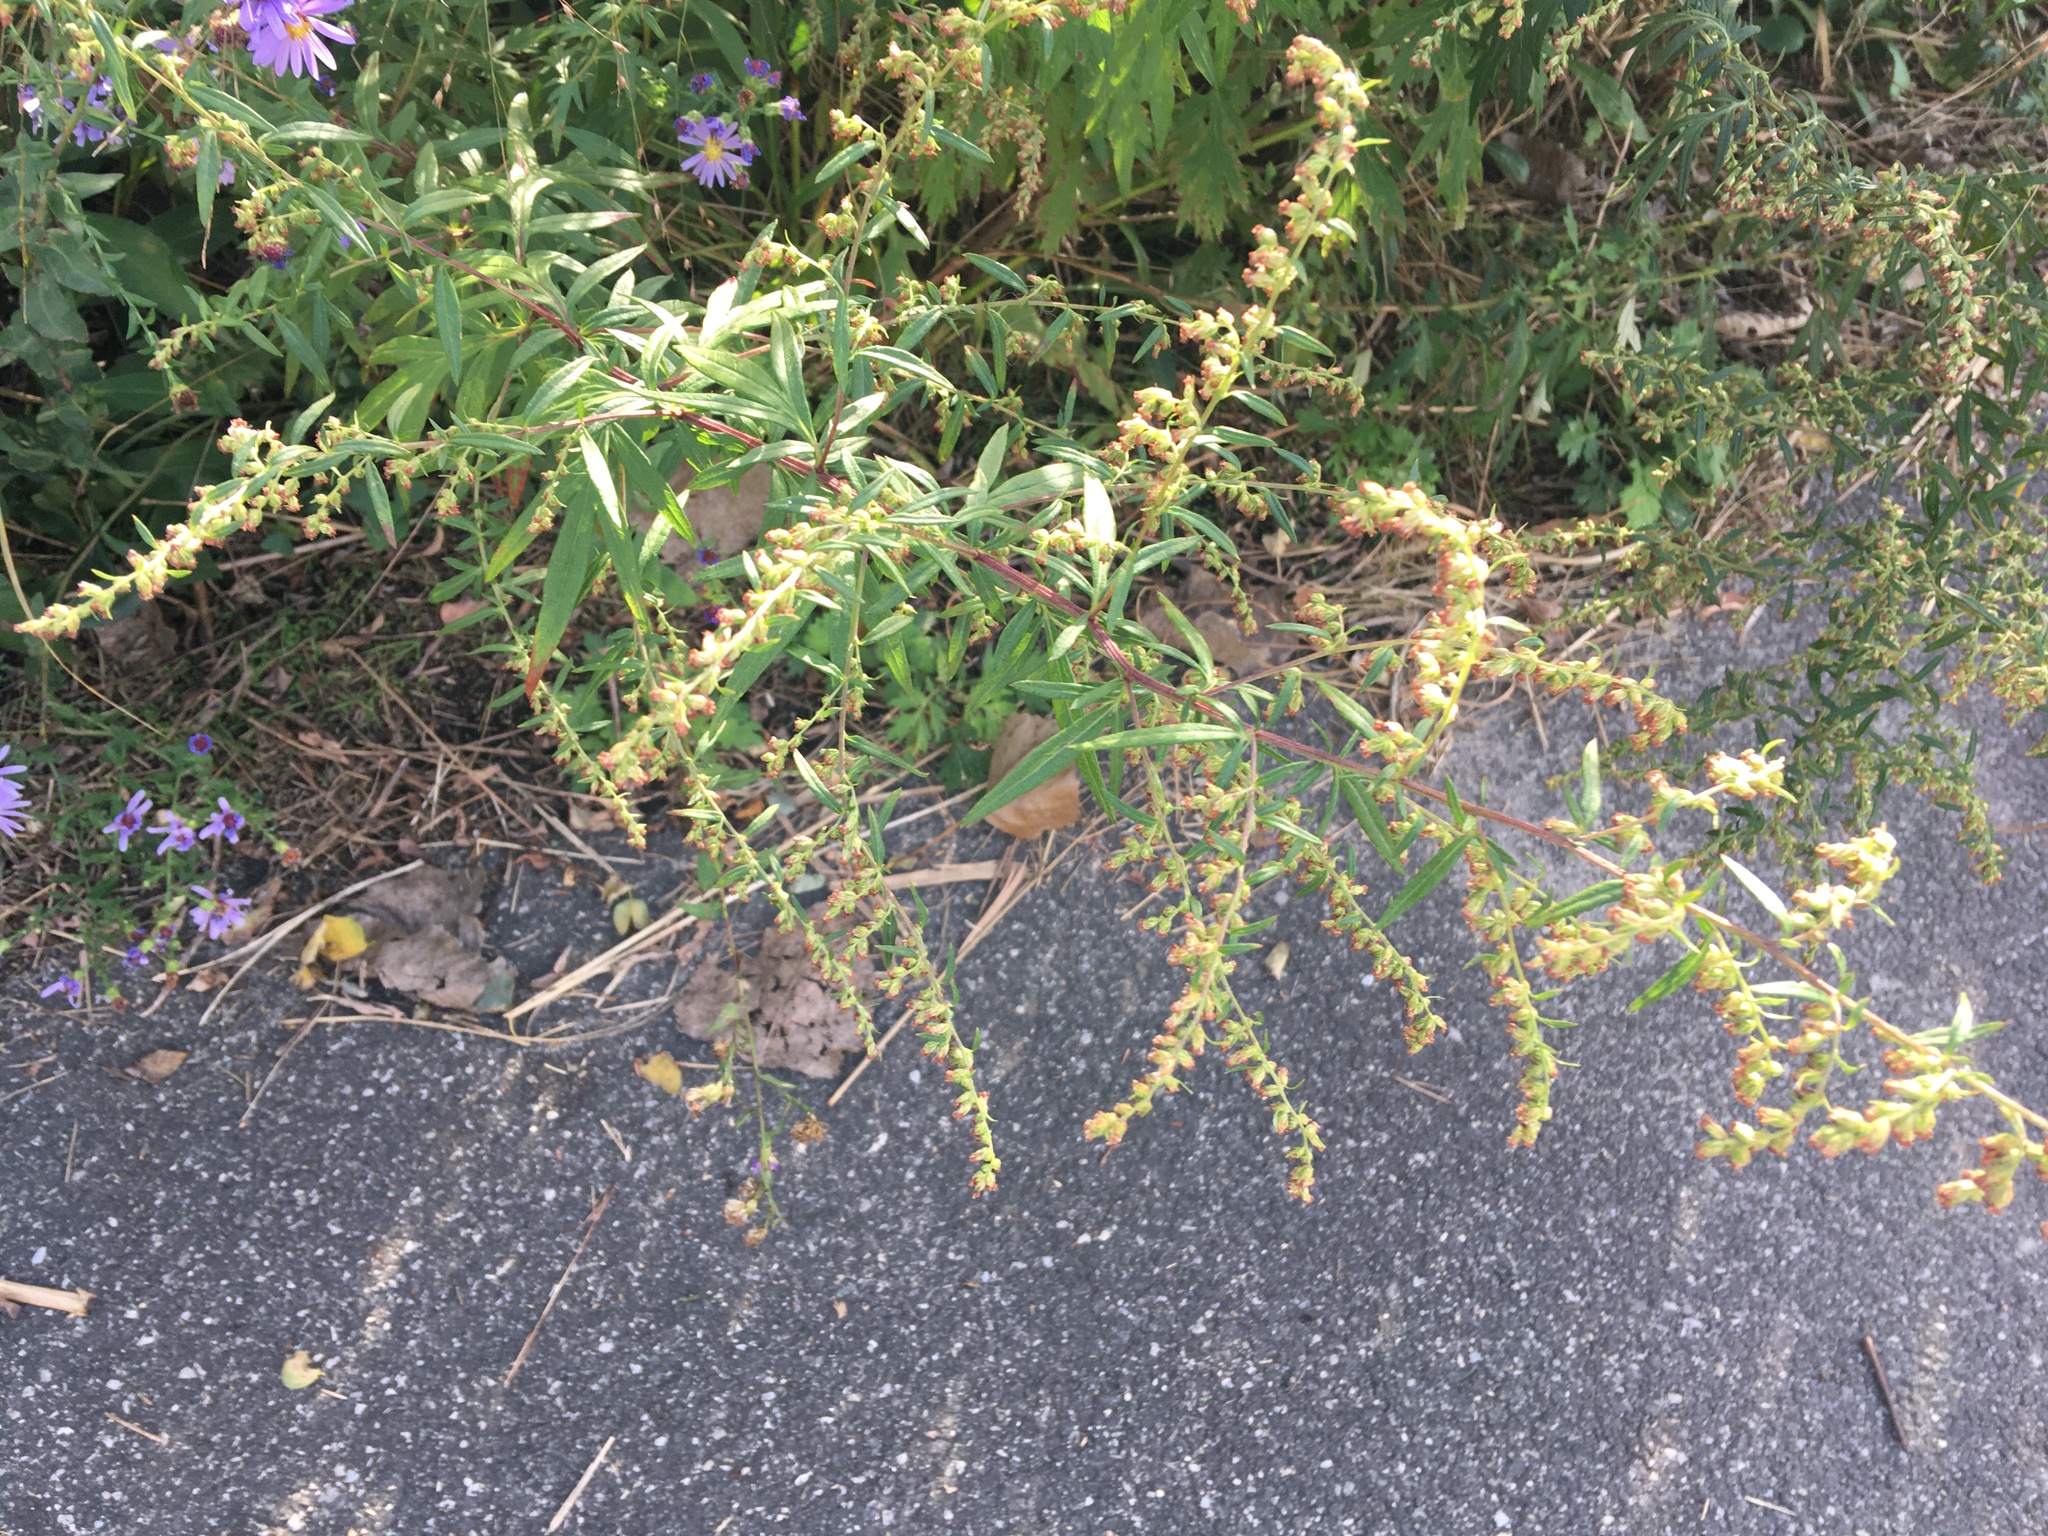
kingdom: Plantae
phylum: Tracheophyta
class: Magnoliopsida
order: Asterales
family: Asteraceae
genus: Artemisia
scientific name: Artemisia vulgaris
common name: Mugwort
